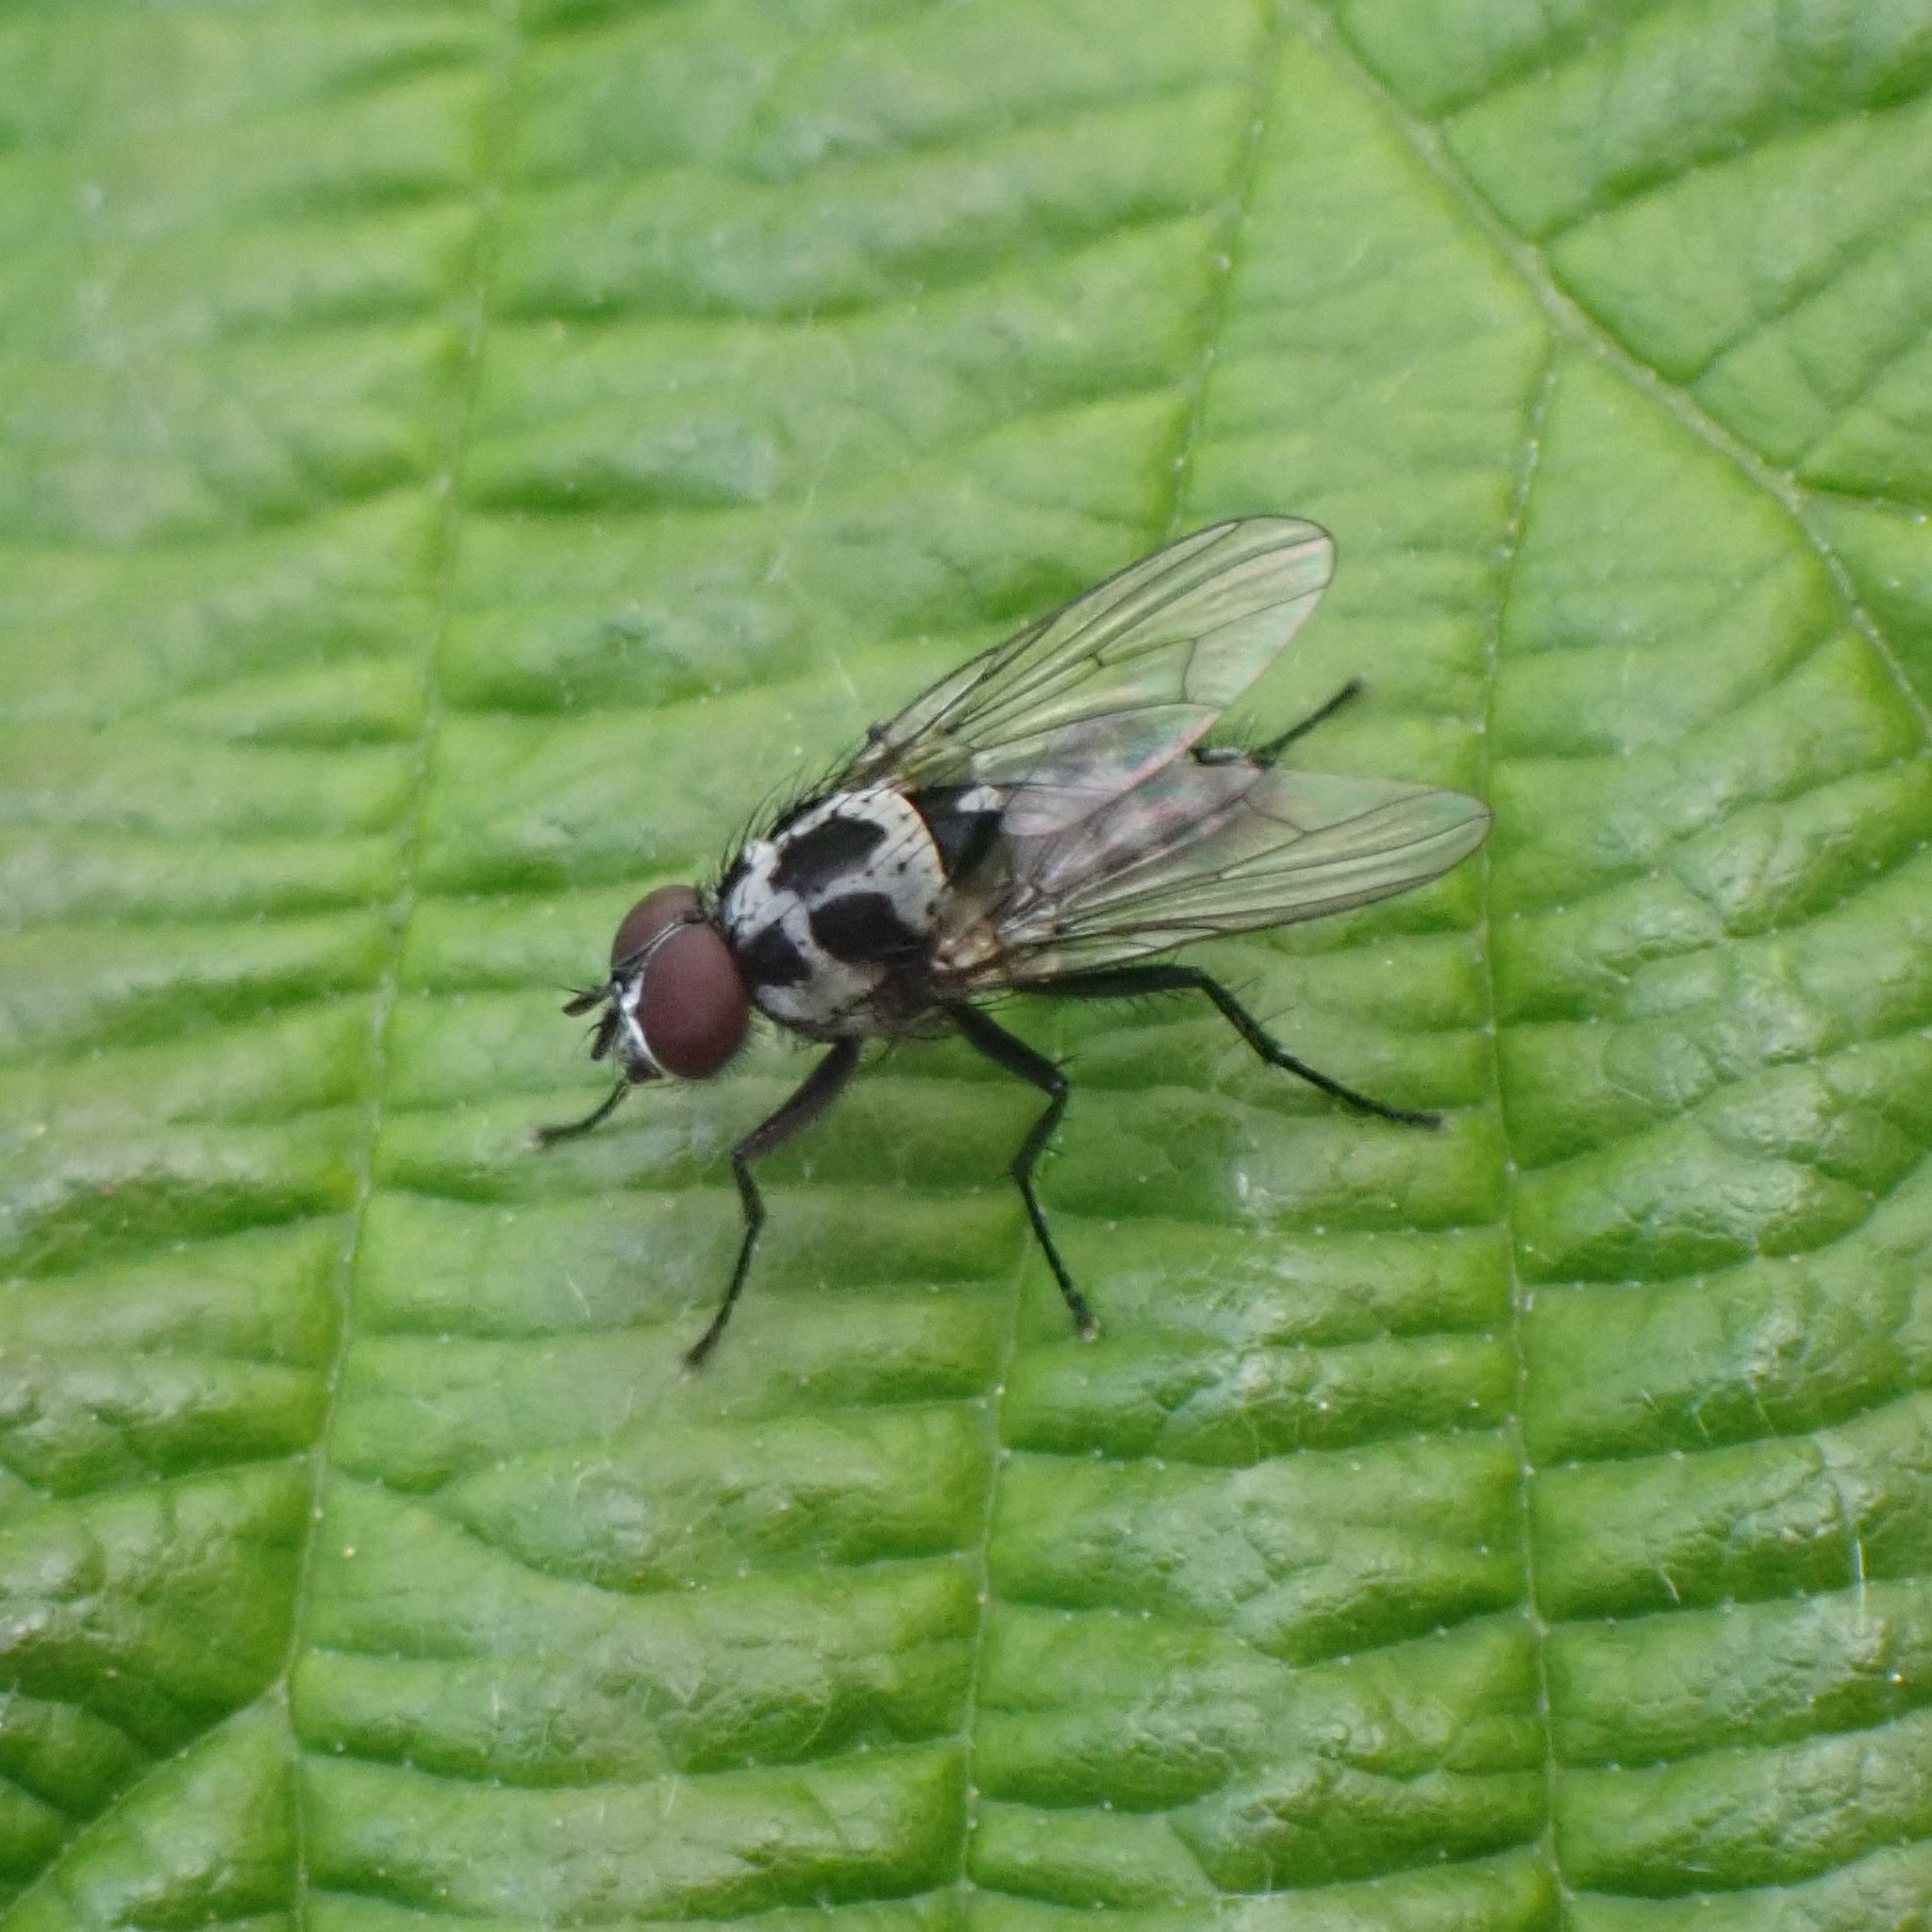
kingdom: Animalia
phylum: Arthropoda
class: Insecta
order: Diptera
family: Anthomyiidae
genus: Anthomyia
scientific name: Anthomyia procellaris
